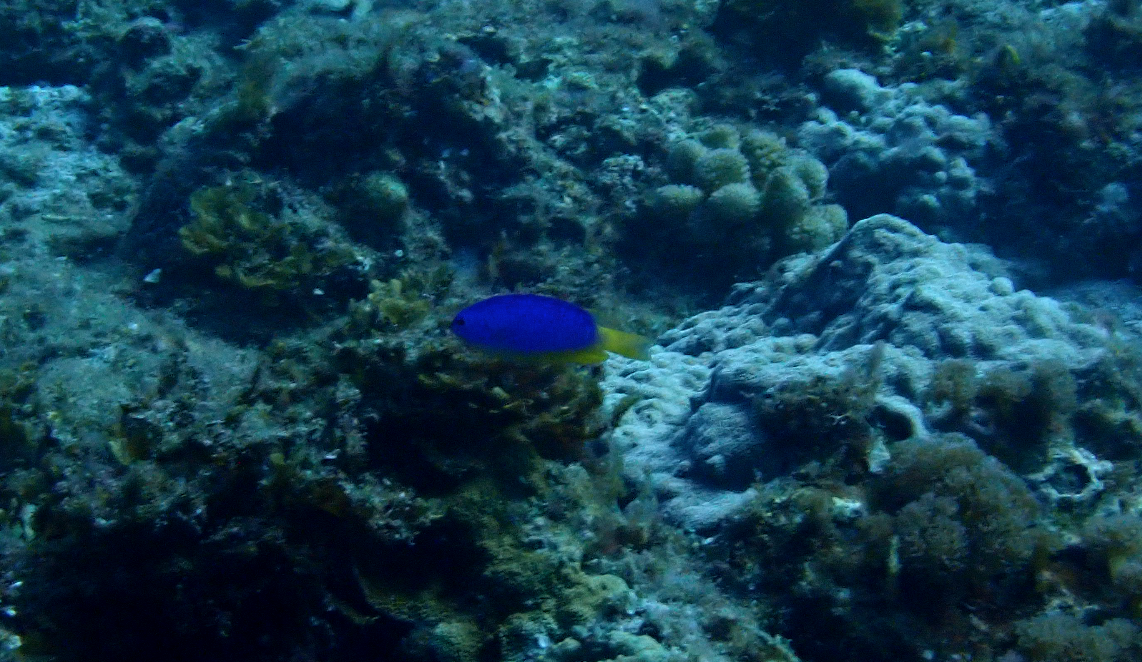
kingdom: Animalia
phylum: Chordata
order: Perciformes
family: Pomacentridae
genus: Pomacentrus
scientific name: Pomacentrus coelestis
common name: Neon damsel
